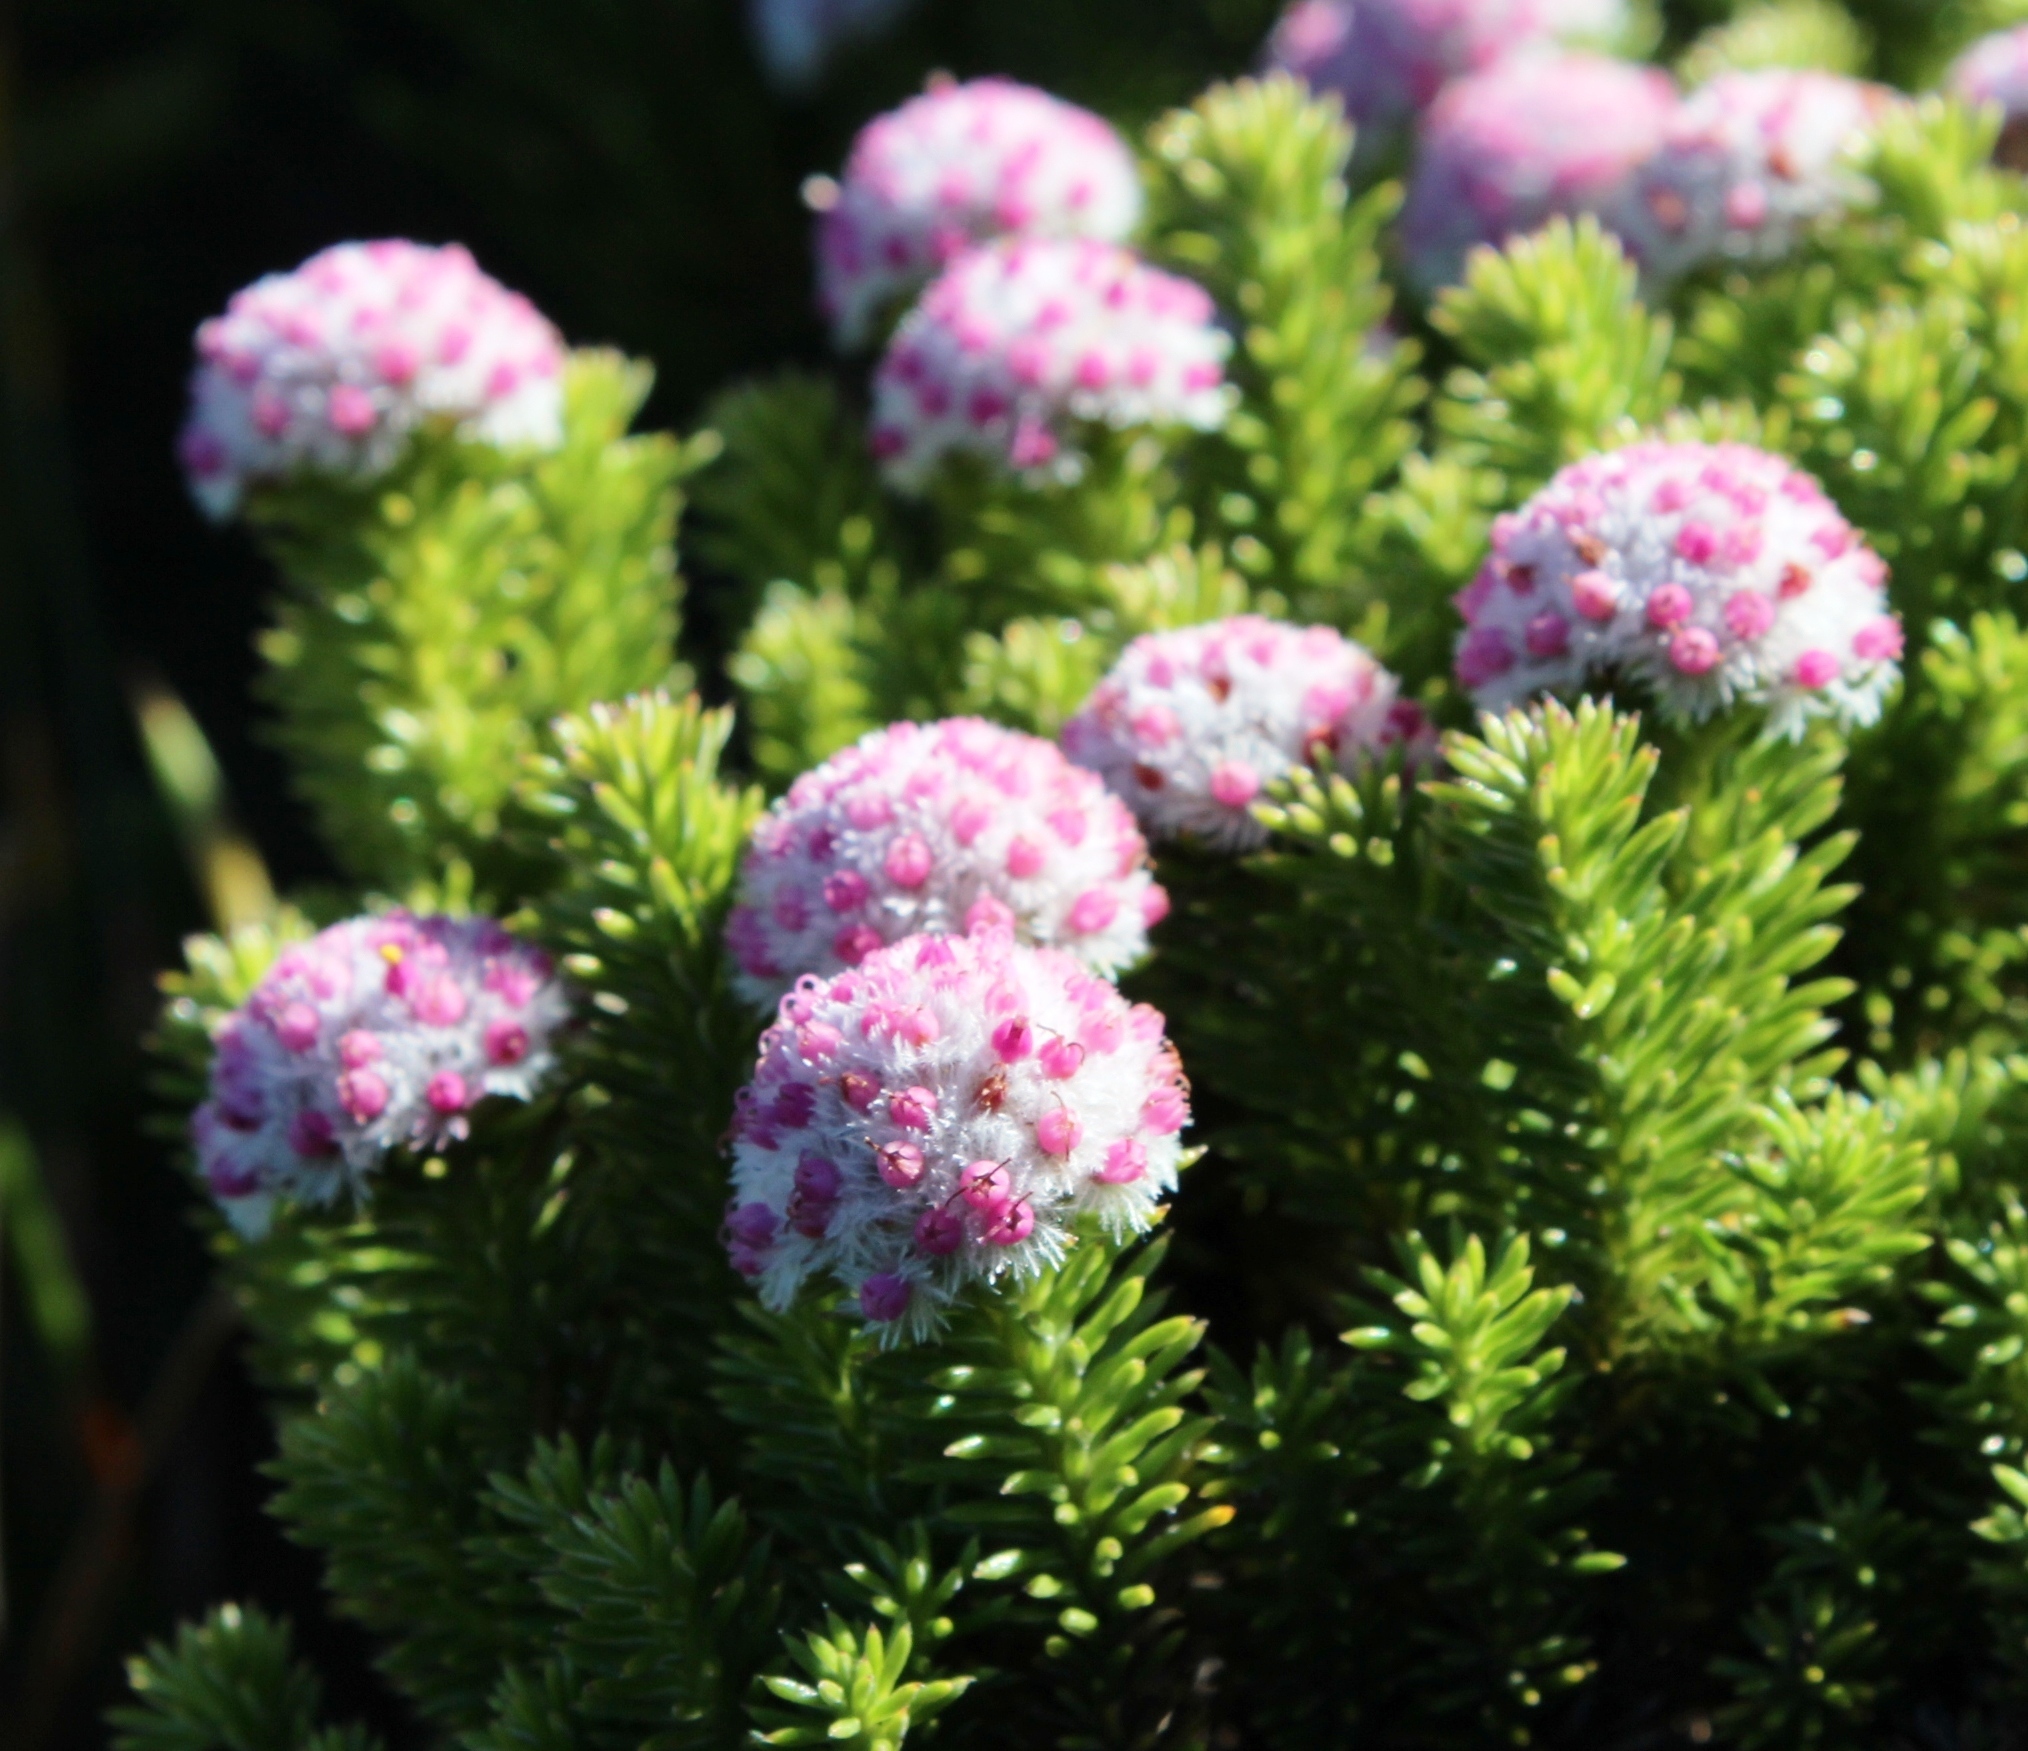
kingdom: Plantae
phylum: Tracheophyta
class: Magnoliopsida
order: Asterales
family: Asteraceae
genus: Stoebe
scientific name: Stoebe rosea
